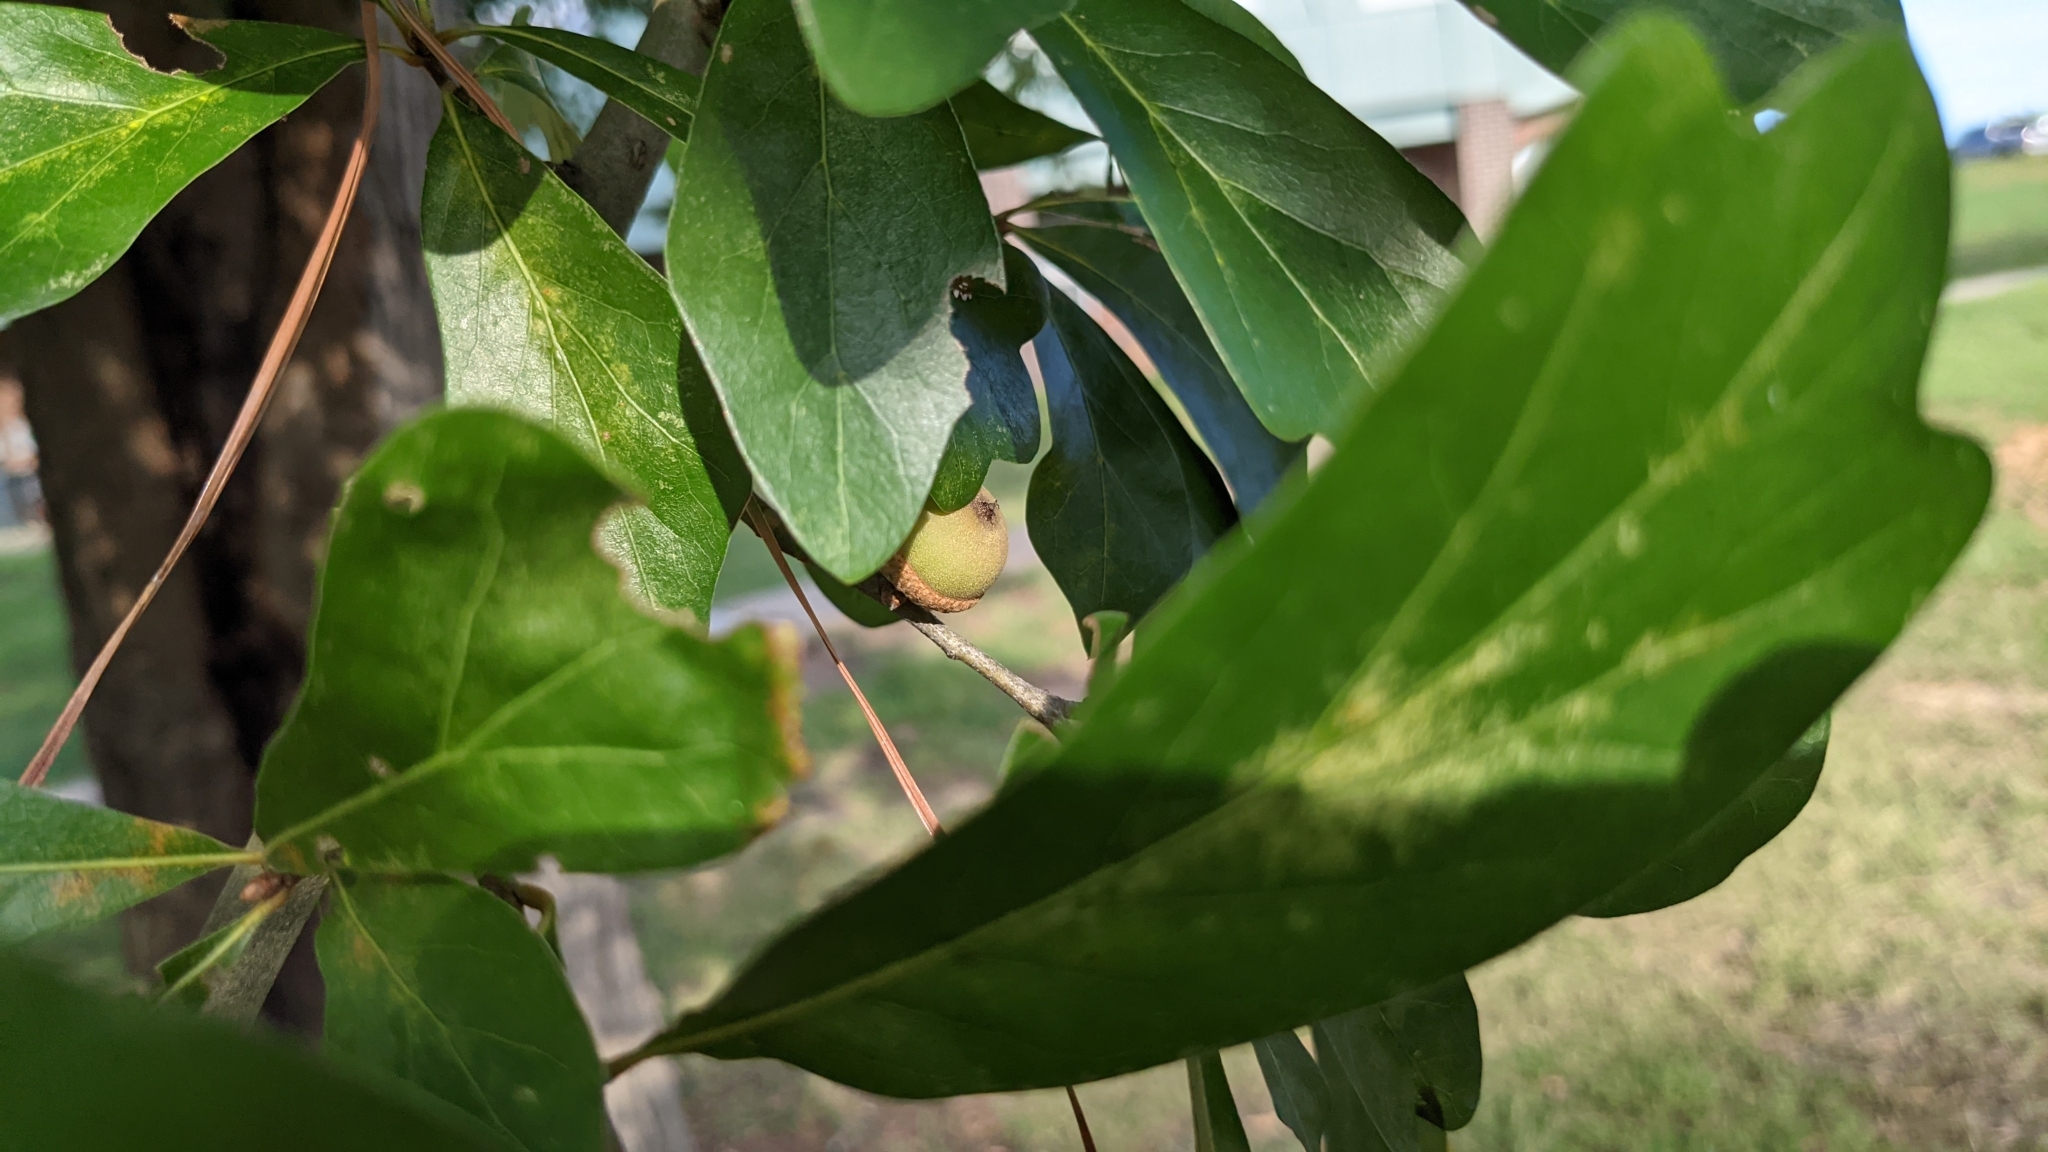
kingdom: Plantae
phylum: Tracheophyta
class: Magnoliopsida
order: Fagales
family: Fagaceae
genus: Quercus
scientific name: Quercus nigra
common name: Water oak
